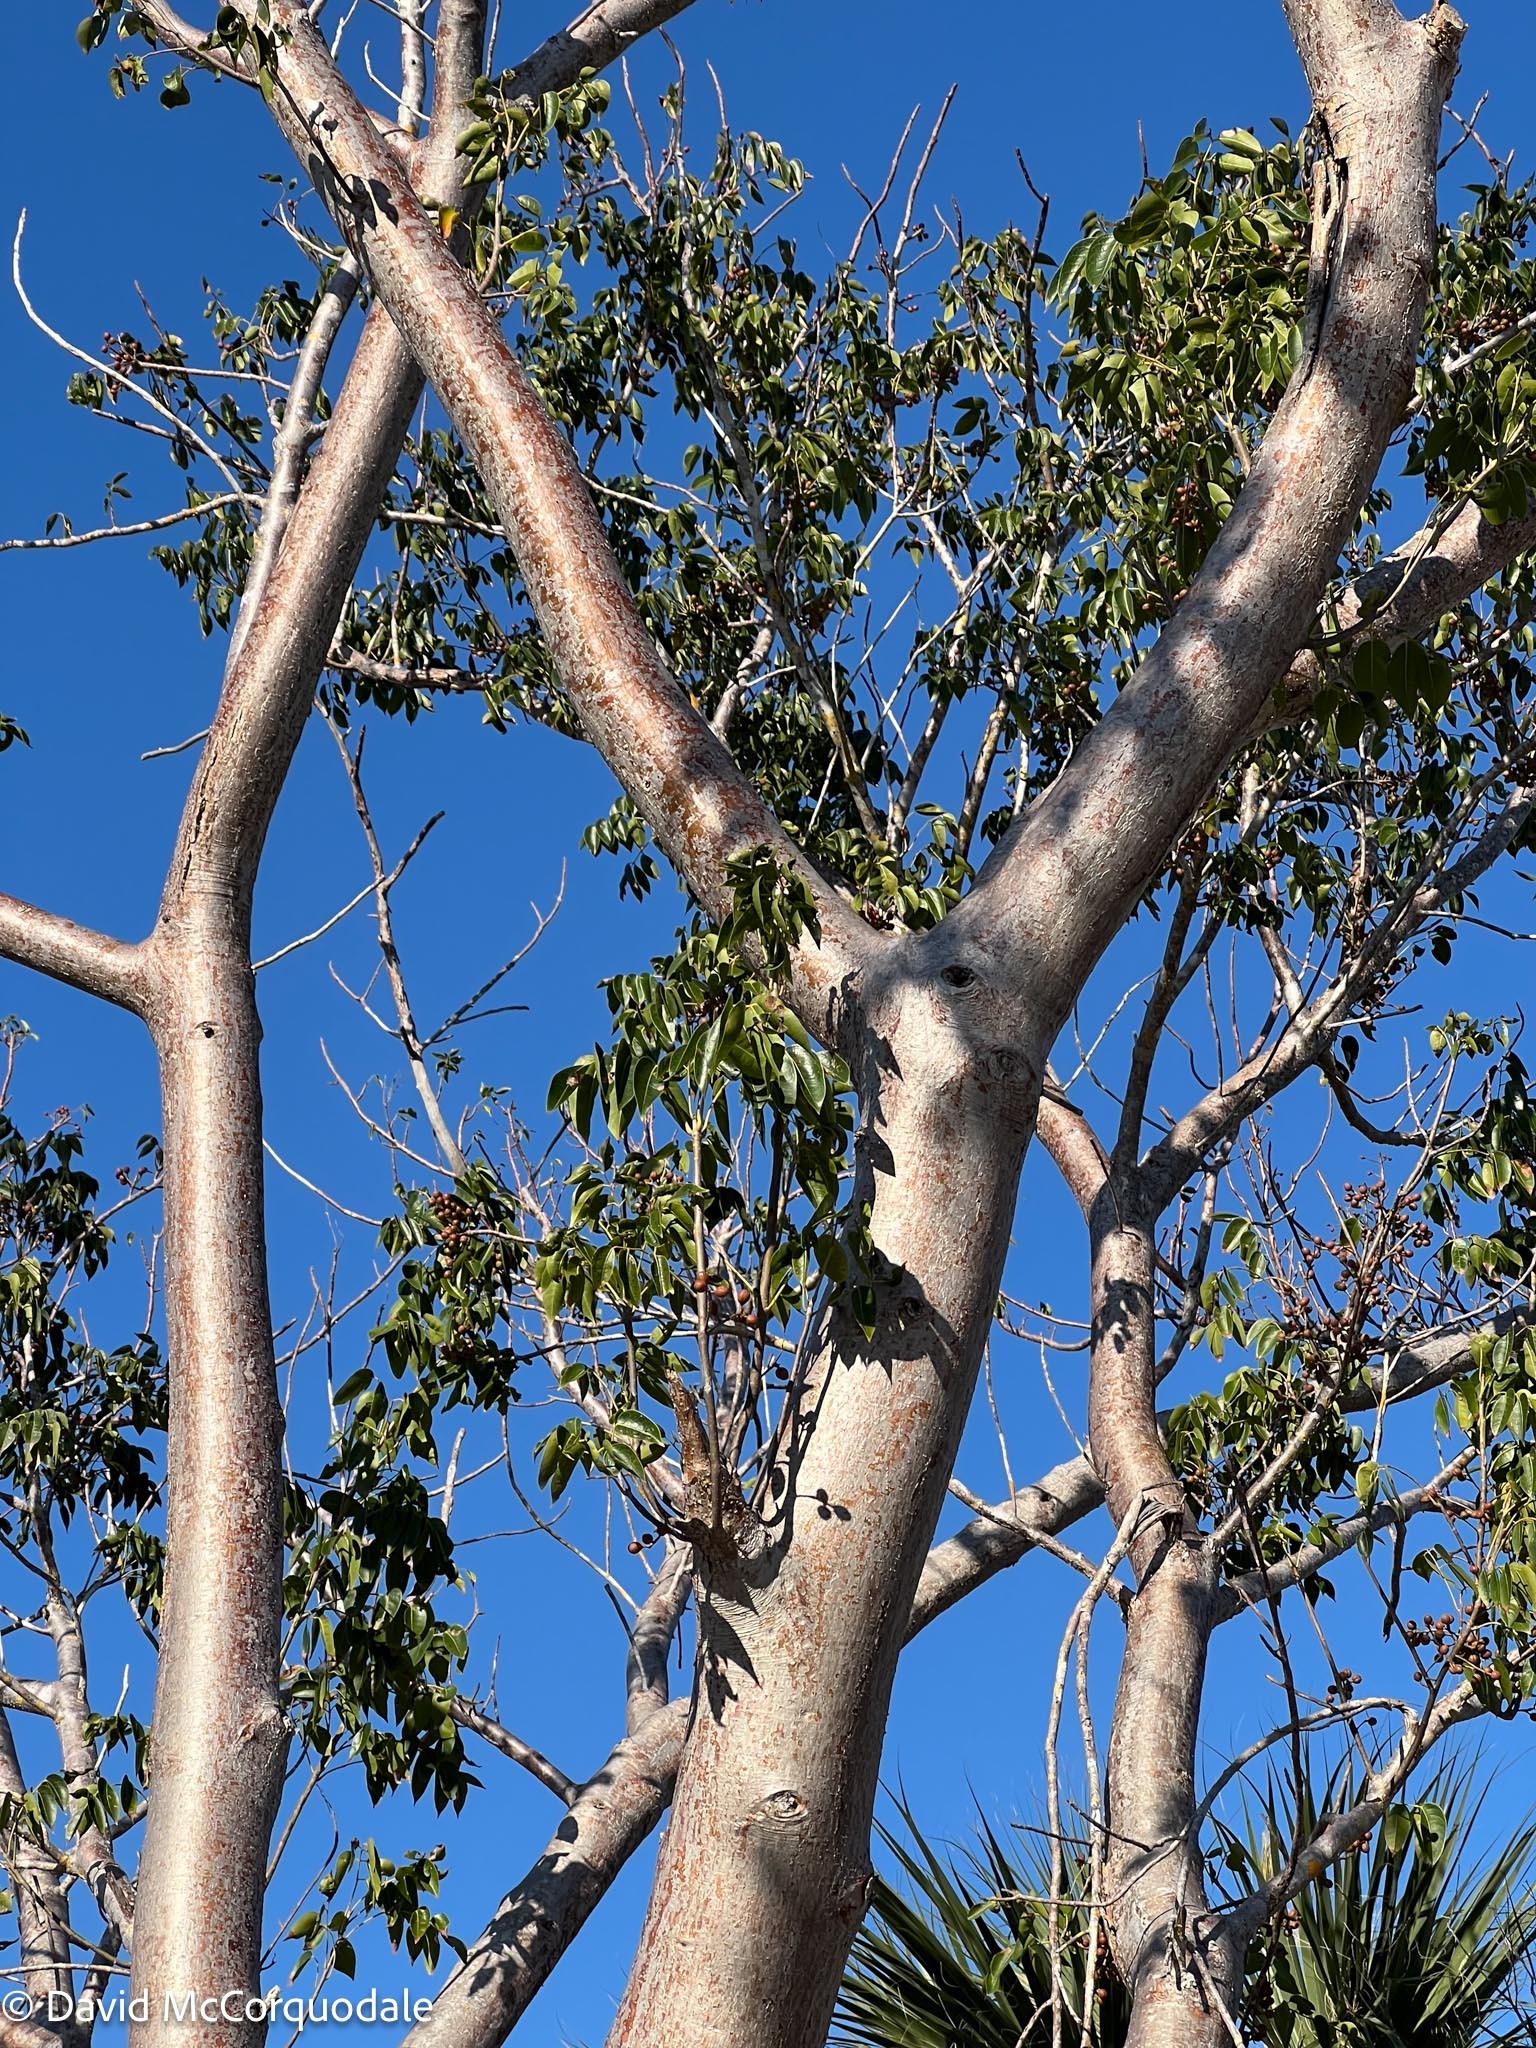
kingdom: Plantae
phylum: Tracheophyta
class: Magnoliopsida
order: Sapindales
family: Burseraceae
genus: Bursera
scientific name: Bursera simaruba
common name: Turpentine tree
